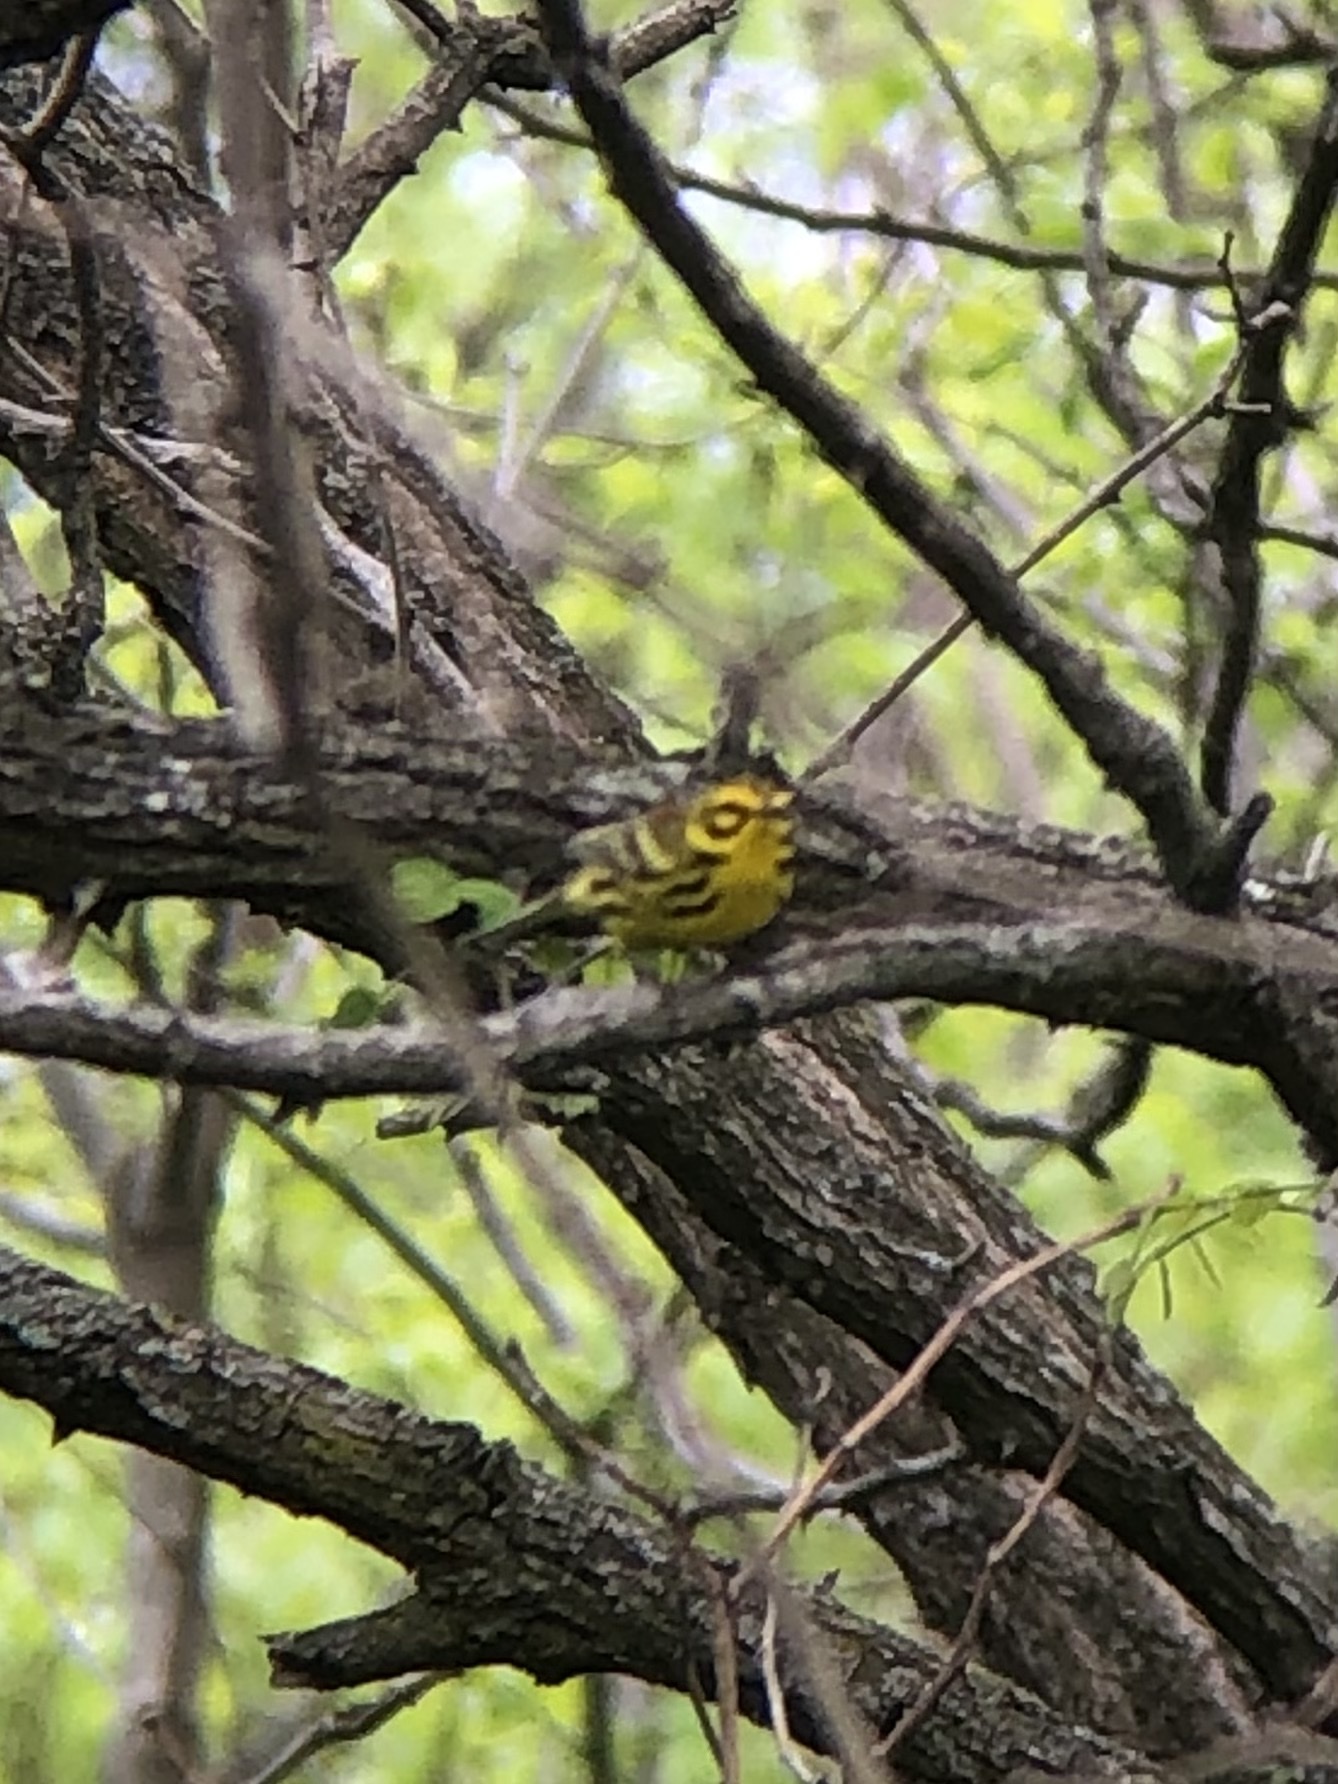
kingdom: Animalia
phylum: Chordata
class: Aves
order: Passeriformes
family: Parulidae
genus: Setophaga
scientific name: Setophaga discolor
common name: Prairie warbler
